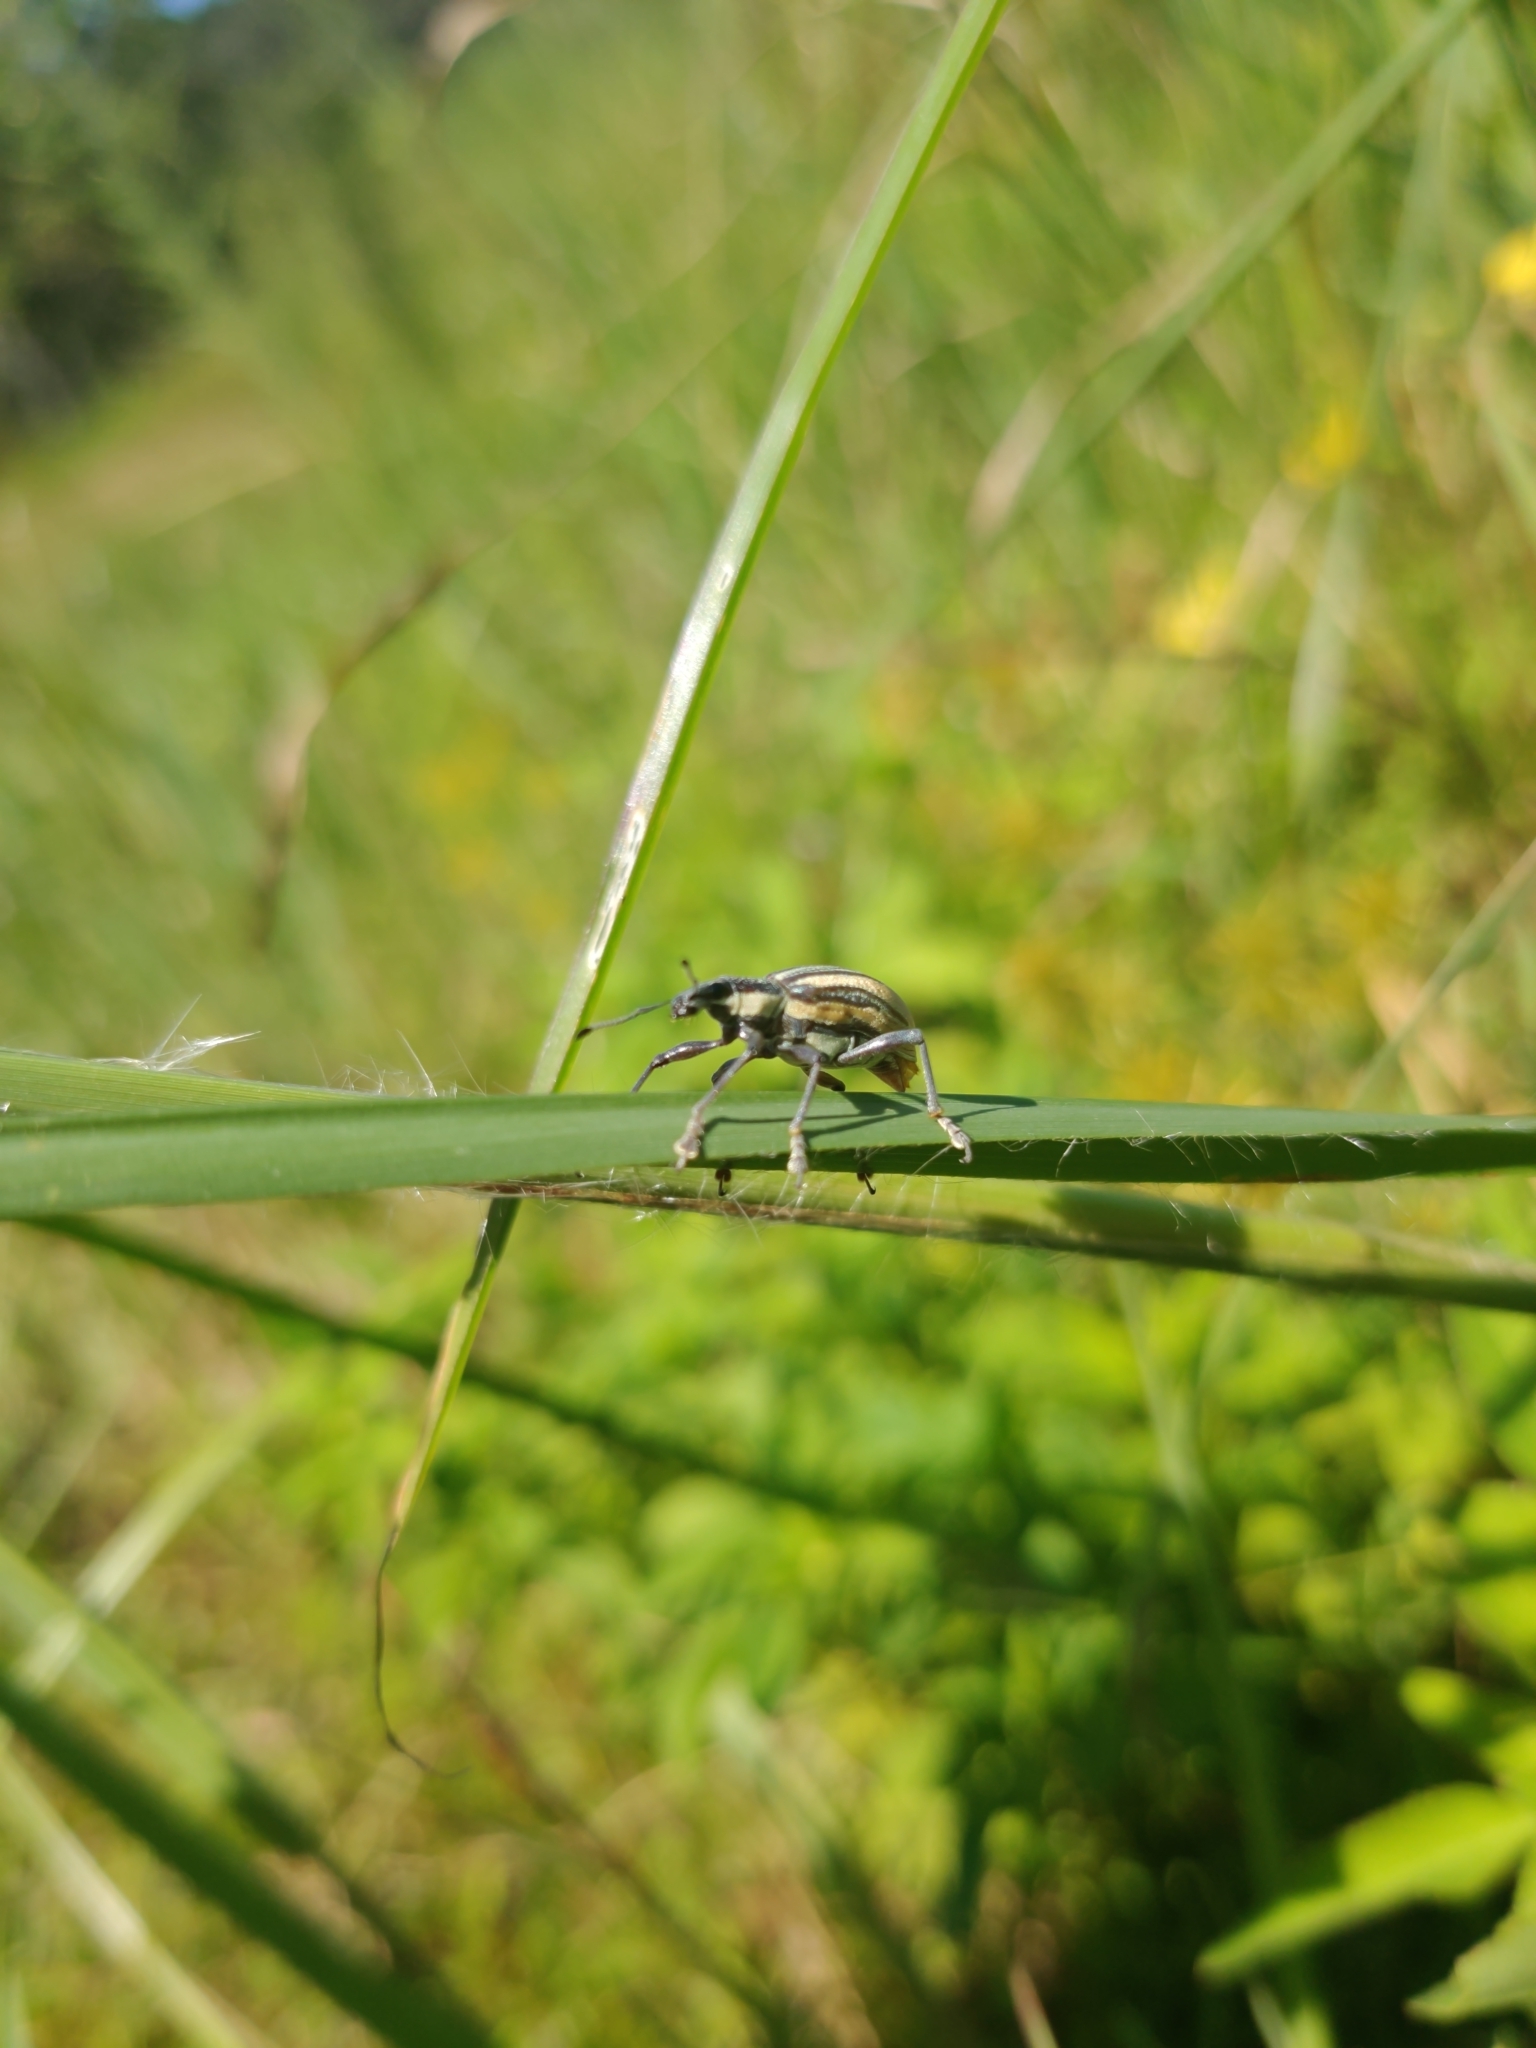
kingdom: Animalia
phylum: Arthropoda
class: Insecta
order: Coleoptera
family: Curculionidae
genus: Diaprepes
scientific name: Diaprepes abbreviatus
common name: Root weevil
